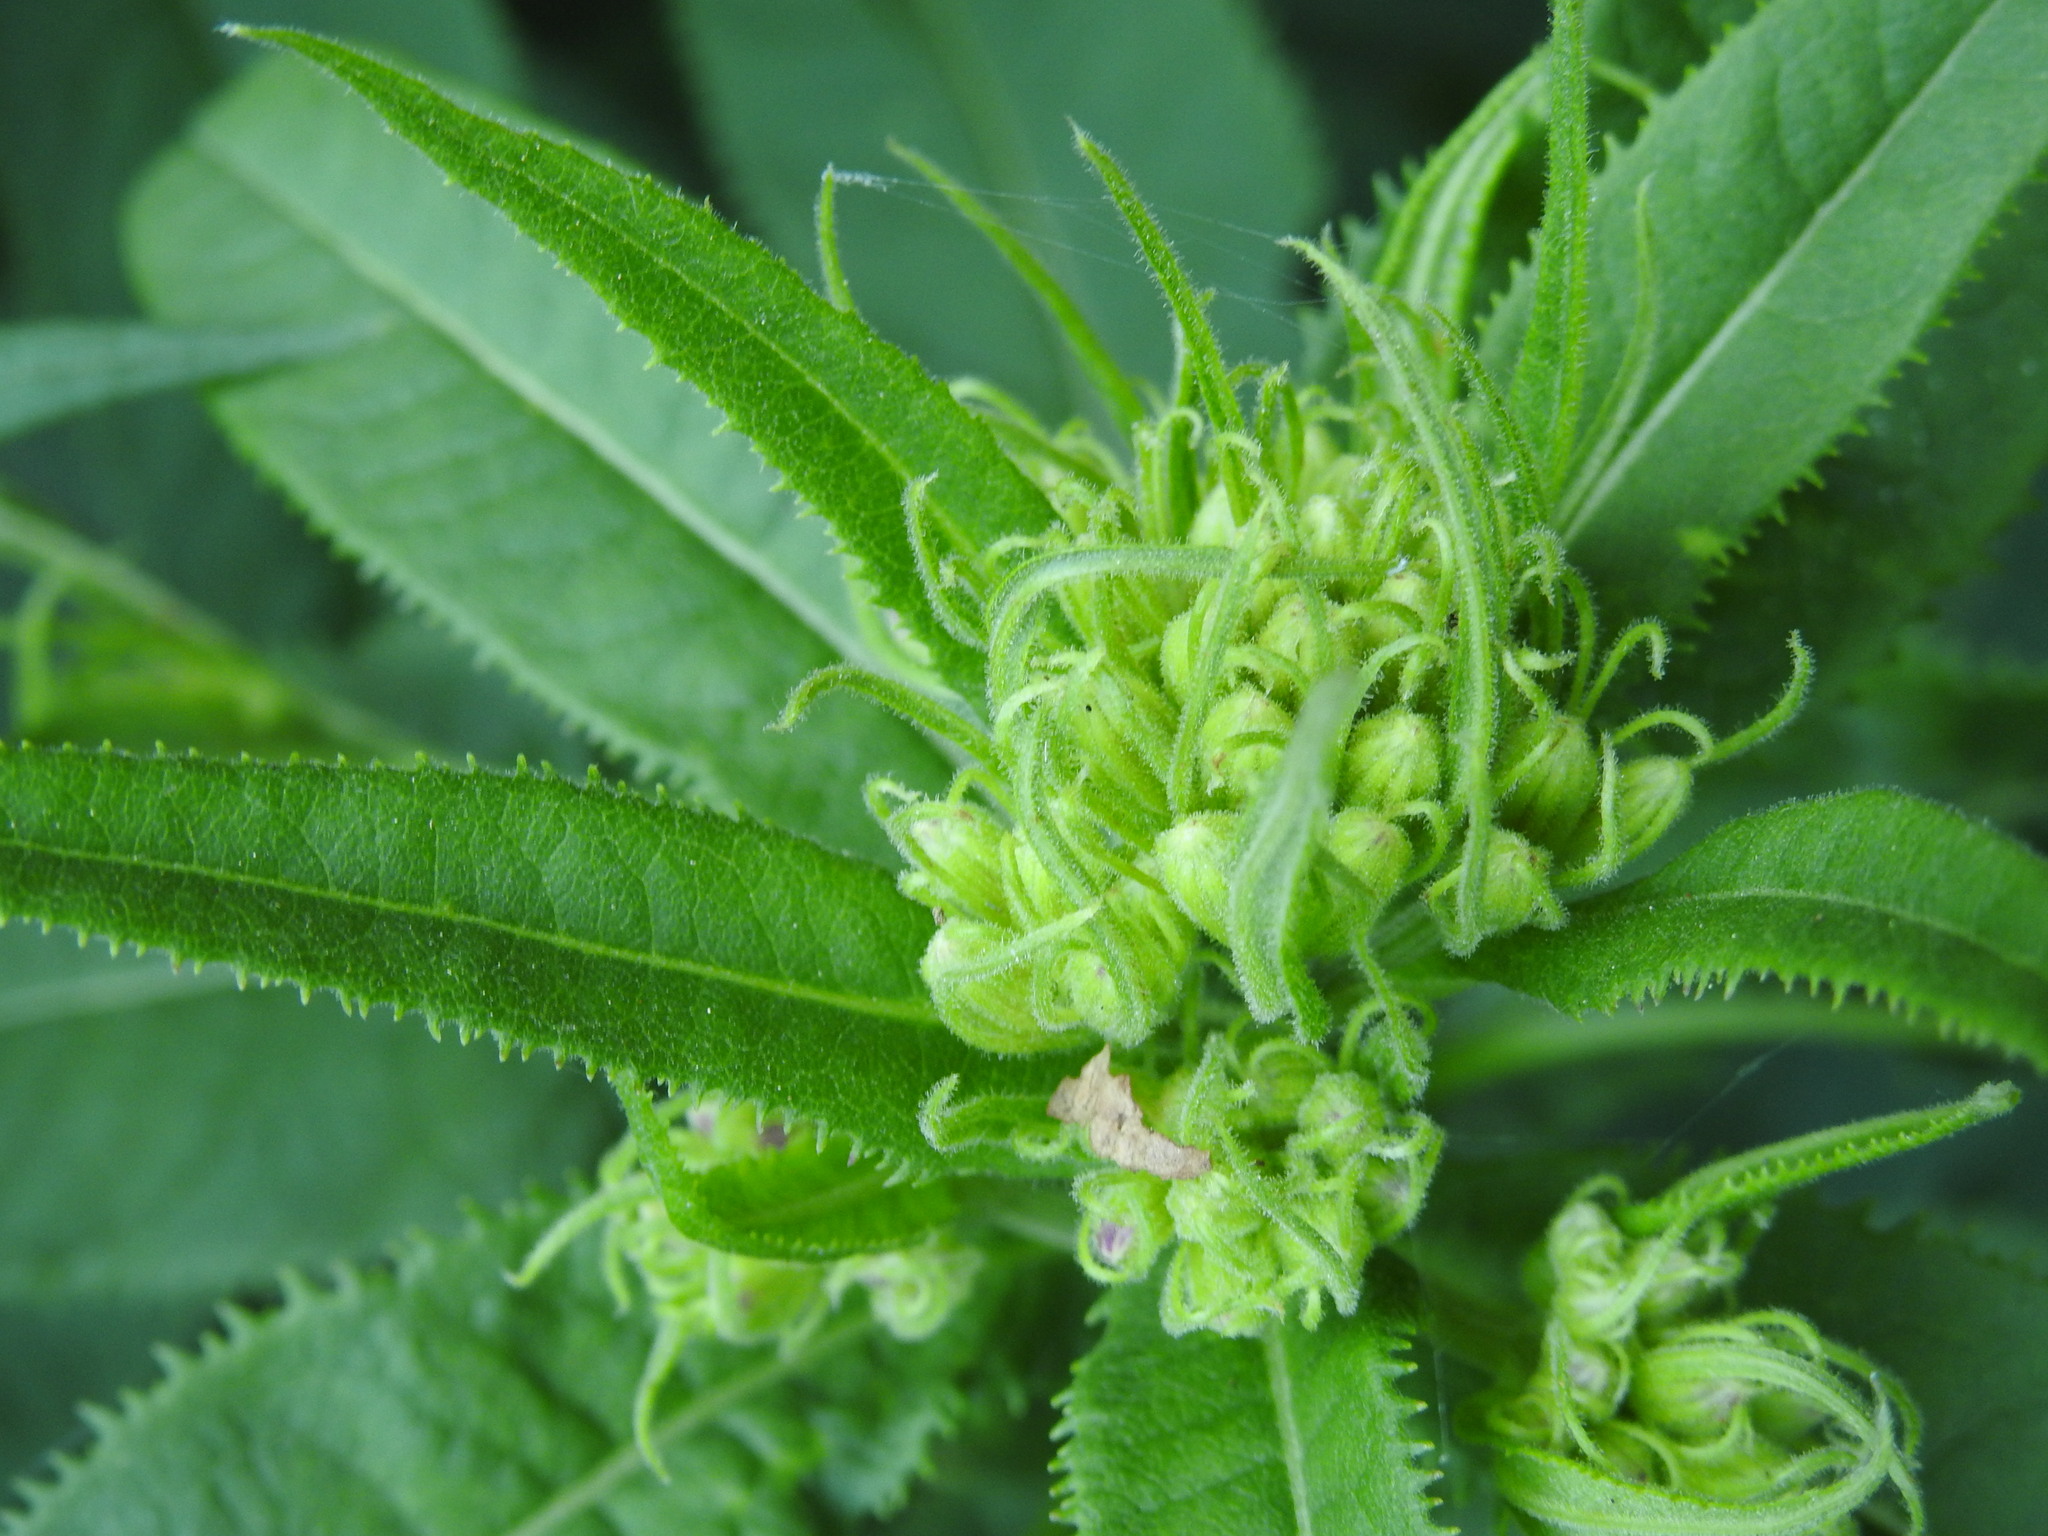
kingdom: Plantae
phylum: Tracheophyta
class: Magnoliopsida
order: Asterales
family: Asteraceae
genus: Senecio
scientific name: Senecio cacaliaster
